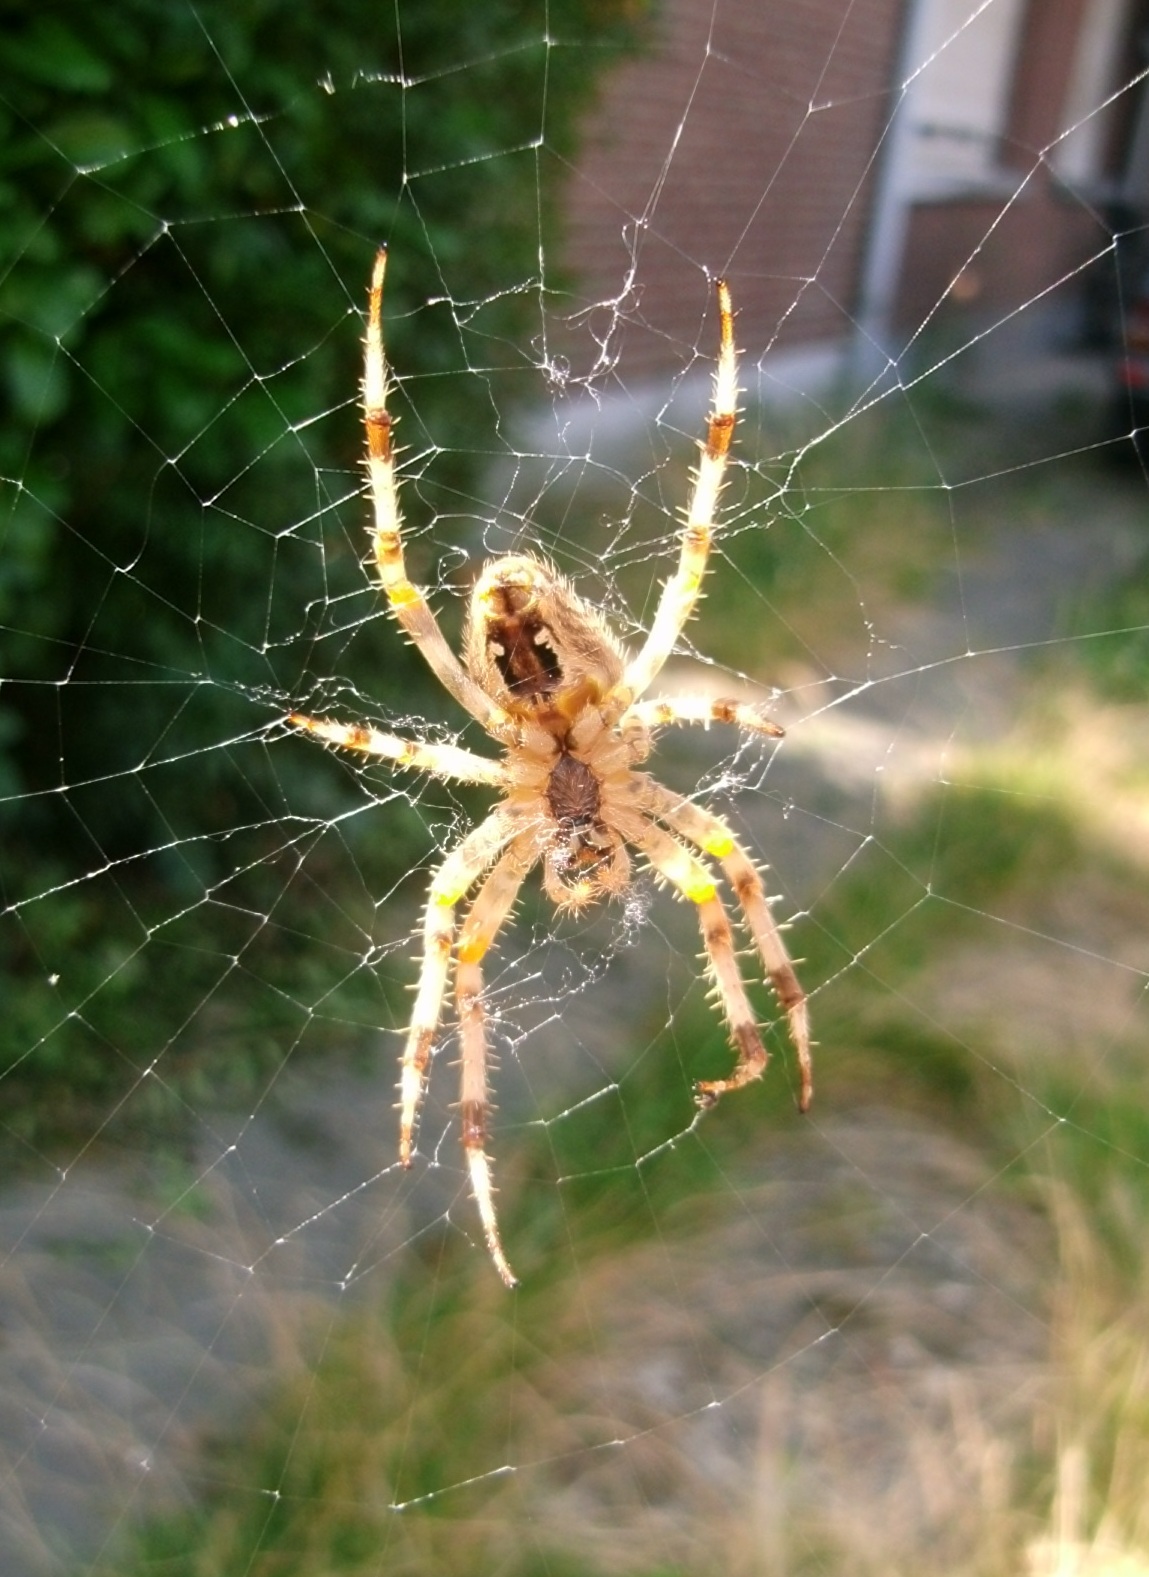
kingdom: Animalia
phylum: Arthropoda
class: Arachnida
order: Araneae
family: Araneidae
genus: Araneus
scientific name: Araneus diadematus
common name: Cross orbweaver
